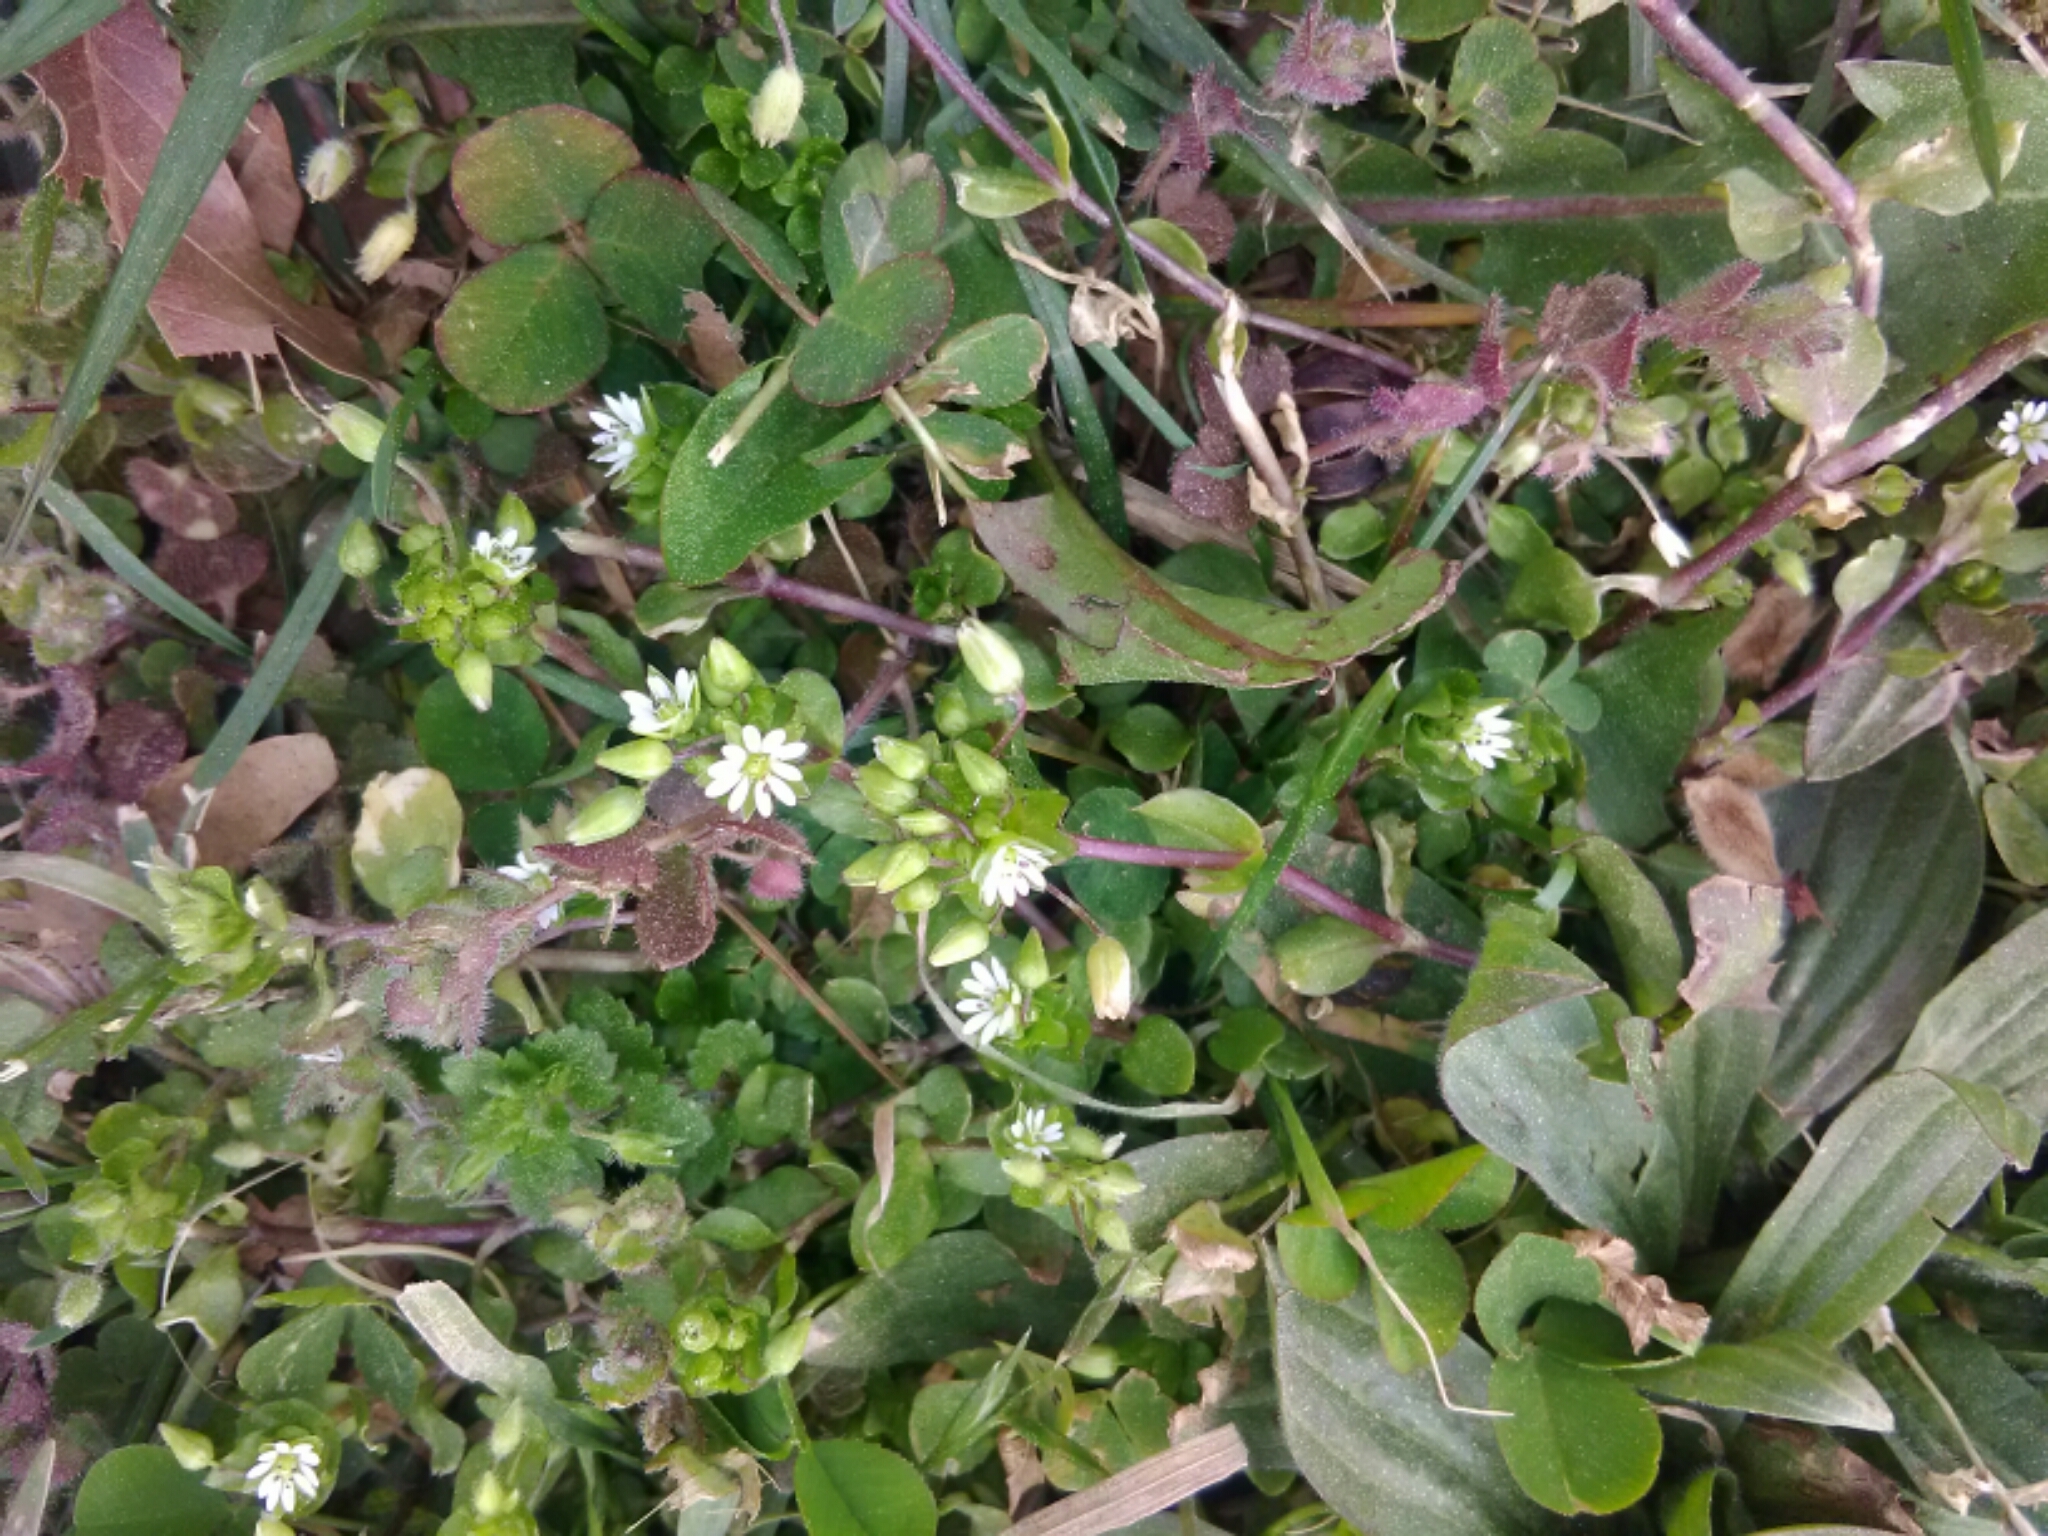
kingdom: Plantae
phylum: Tracheophyta
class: Magnoliopsida
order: Caryophyllales
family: Caryophyllaceae
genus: Stellaria
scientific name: Stellaria media
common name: Common chickweed
